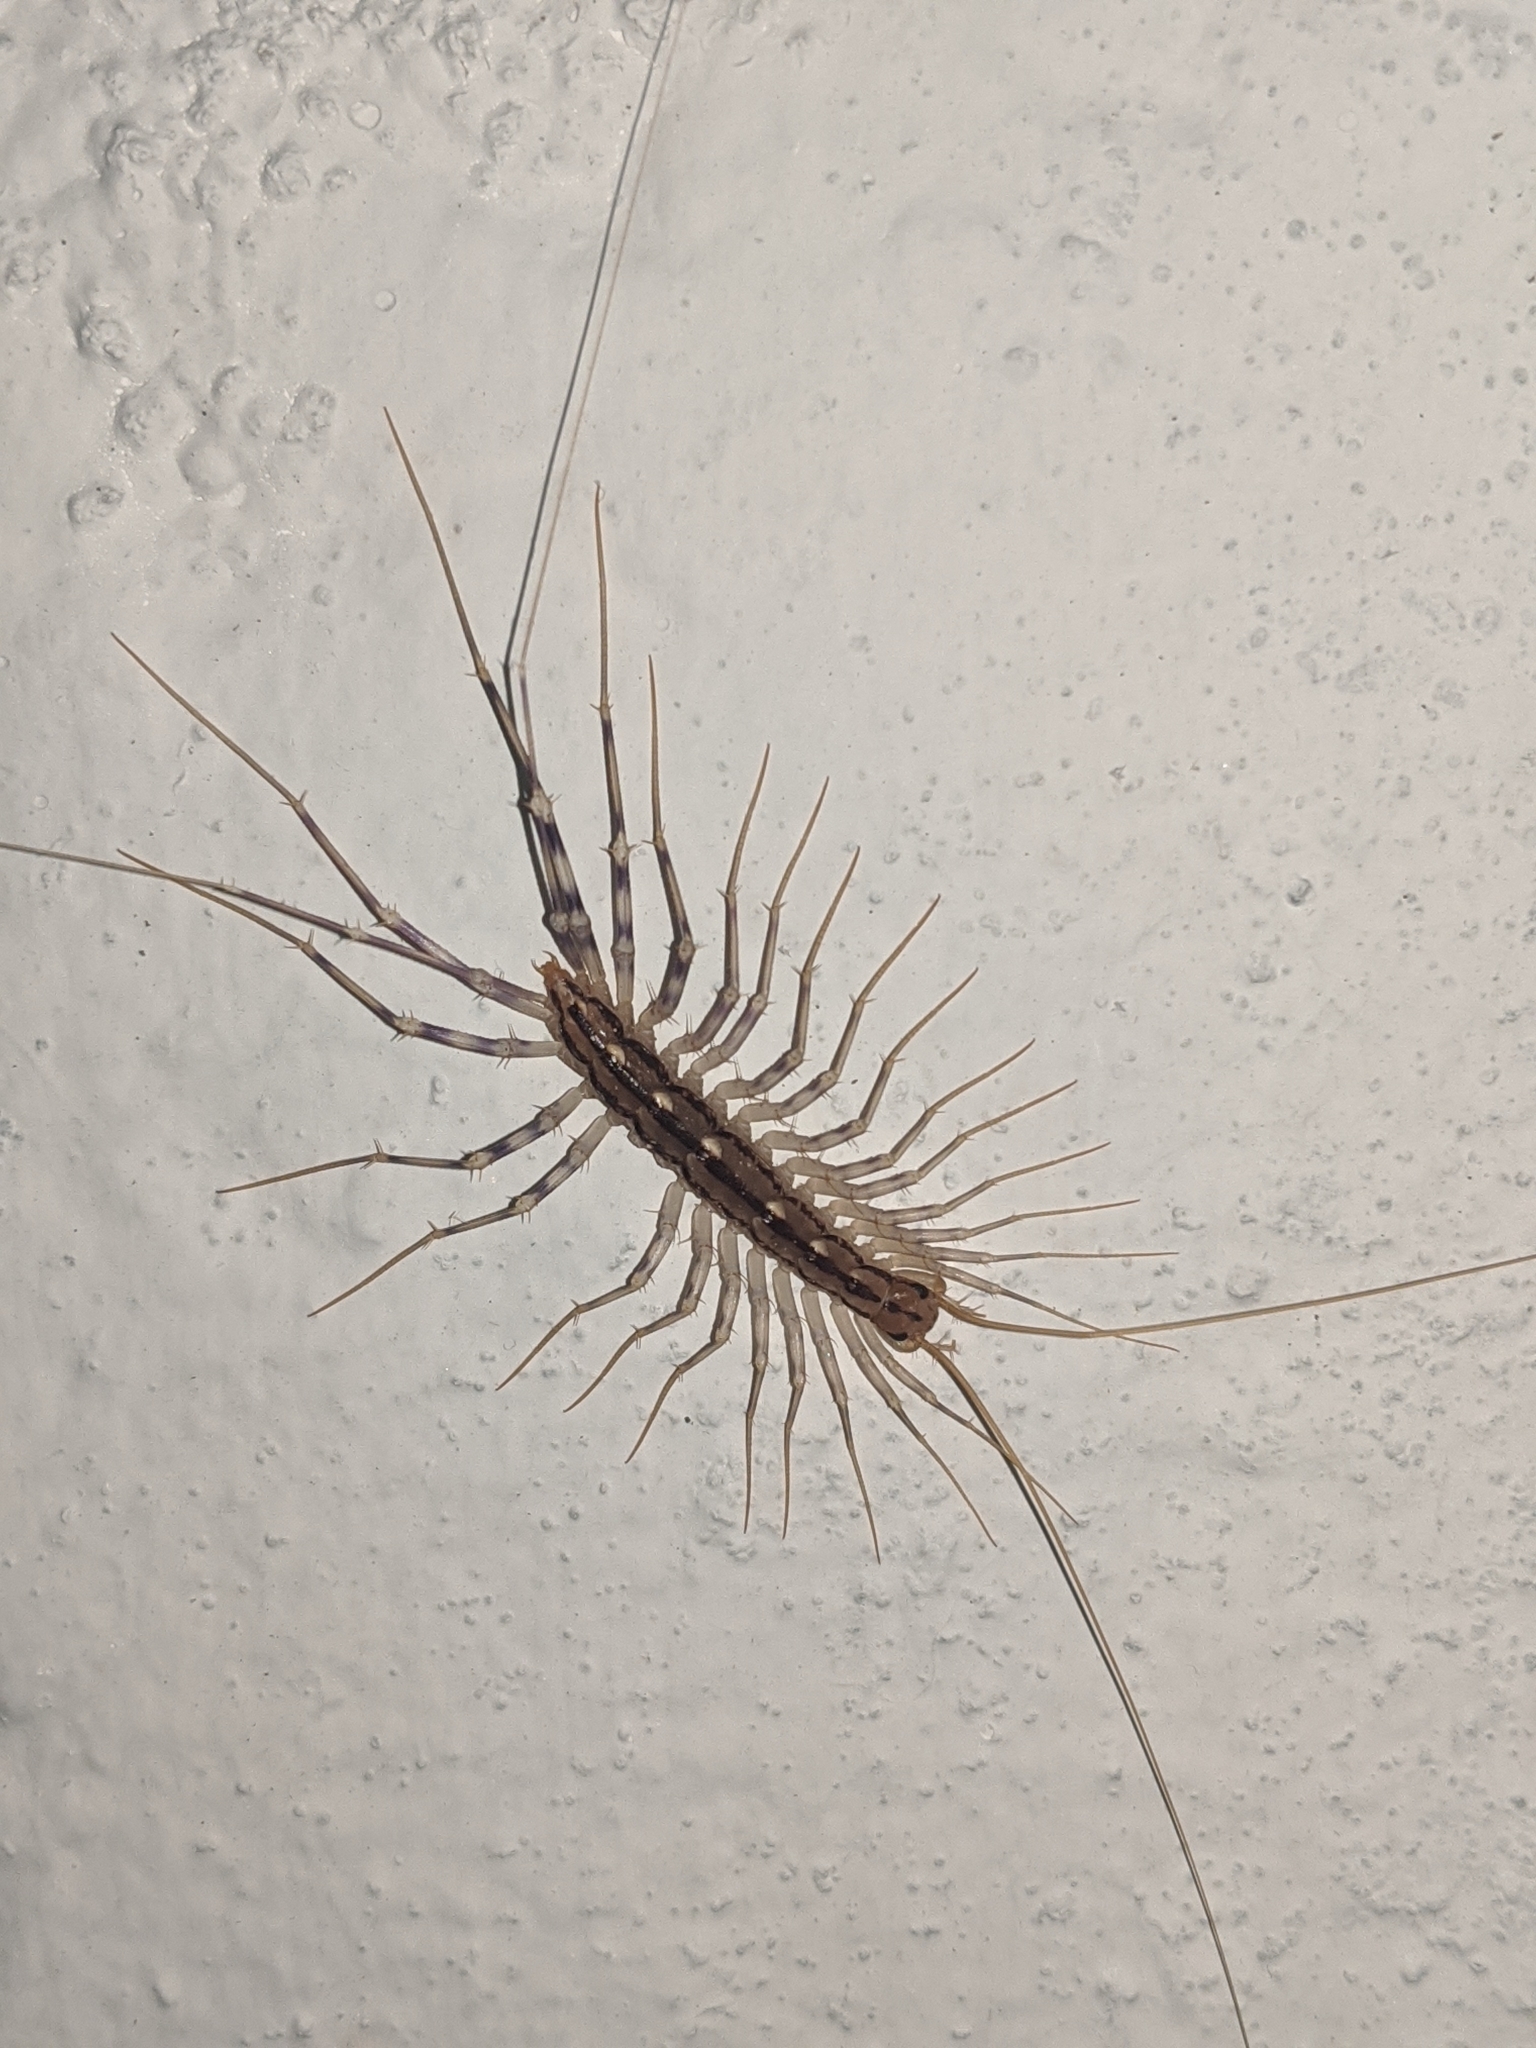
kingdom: Animalia
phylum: Arthropoda
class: Chilopoda
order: Scutigeromorpha
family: Scutigeridae
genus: Scutigera
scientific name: Scutigera coleoptrata
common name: House centipede
